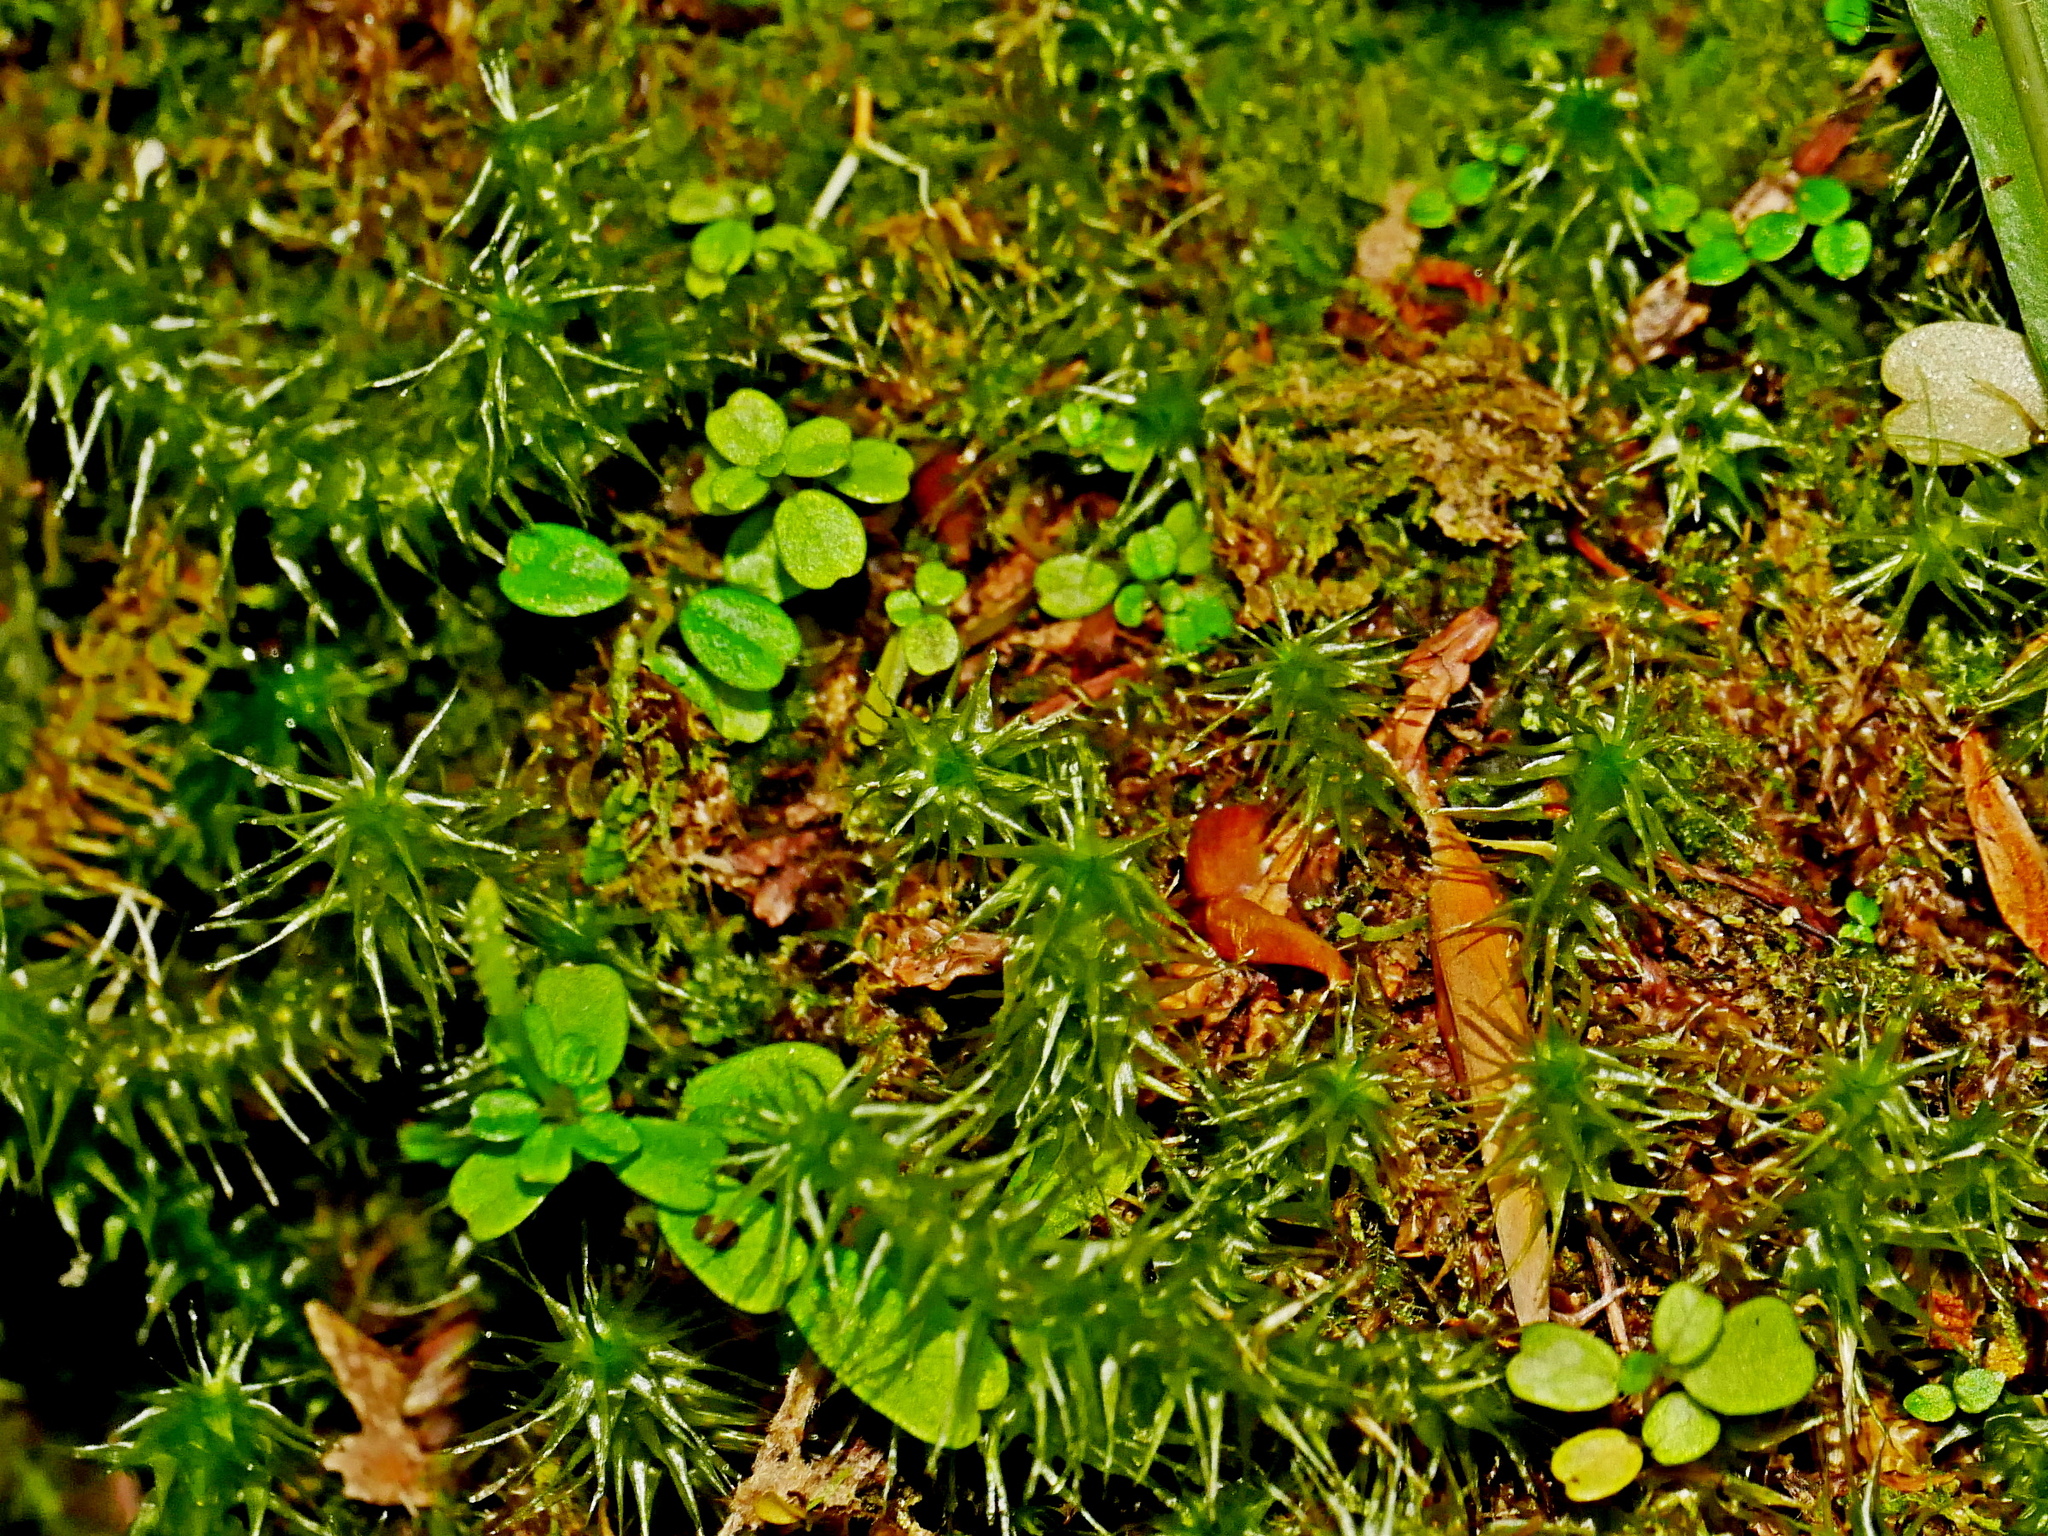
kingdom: Plantae
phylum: Tracheophyta
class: Magnoliopsida
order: Piperales
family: Piperaceae
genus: Peperomia
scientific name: Peperomia nakaharai
